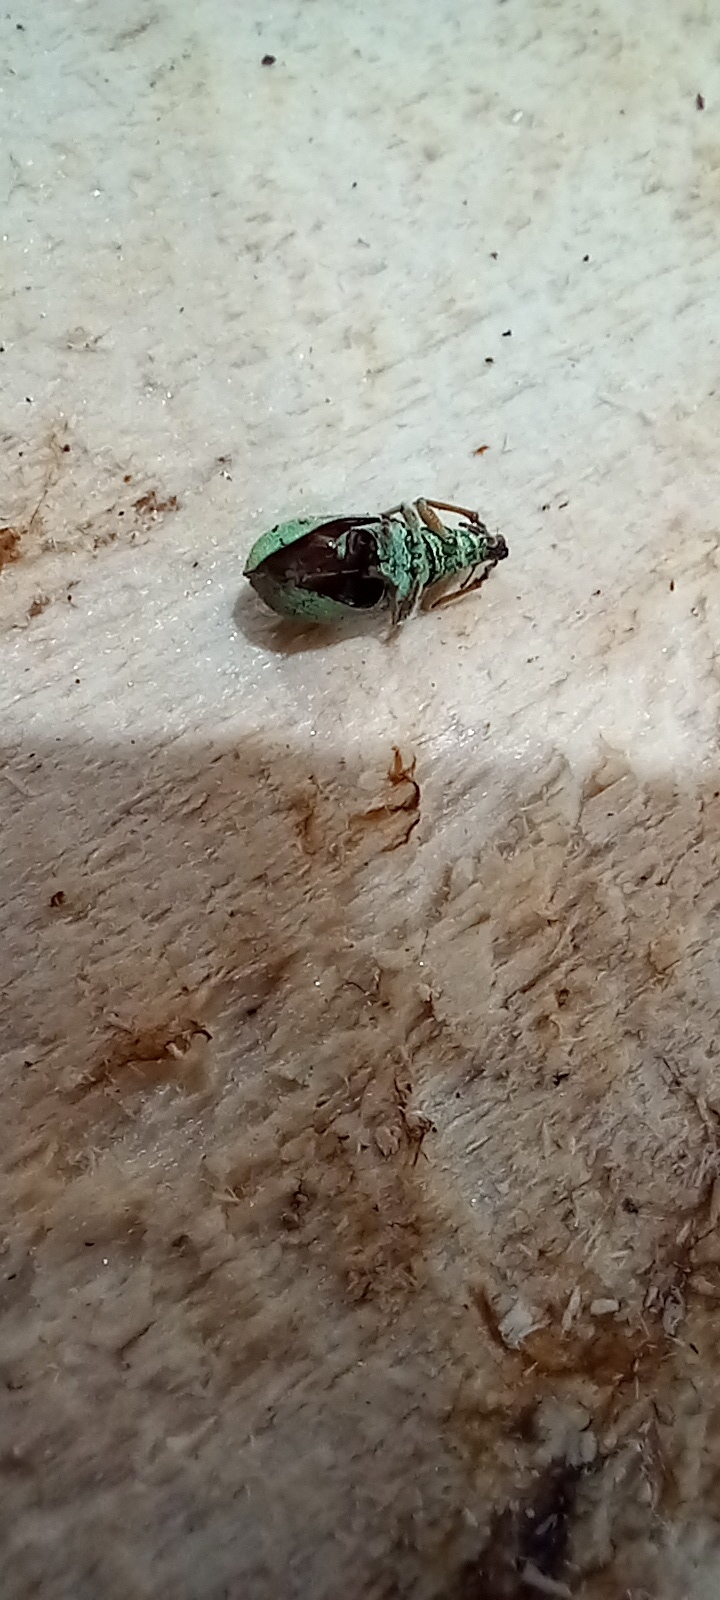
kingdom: Animalia
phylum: Arthropoda
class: Insecta
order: Coleoptera
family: Curculionidae
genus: Polydrusus
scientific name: Polydrusus formosus
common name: Weevil
